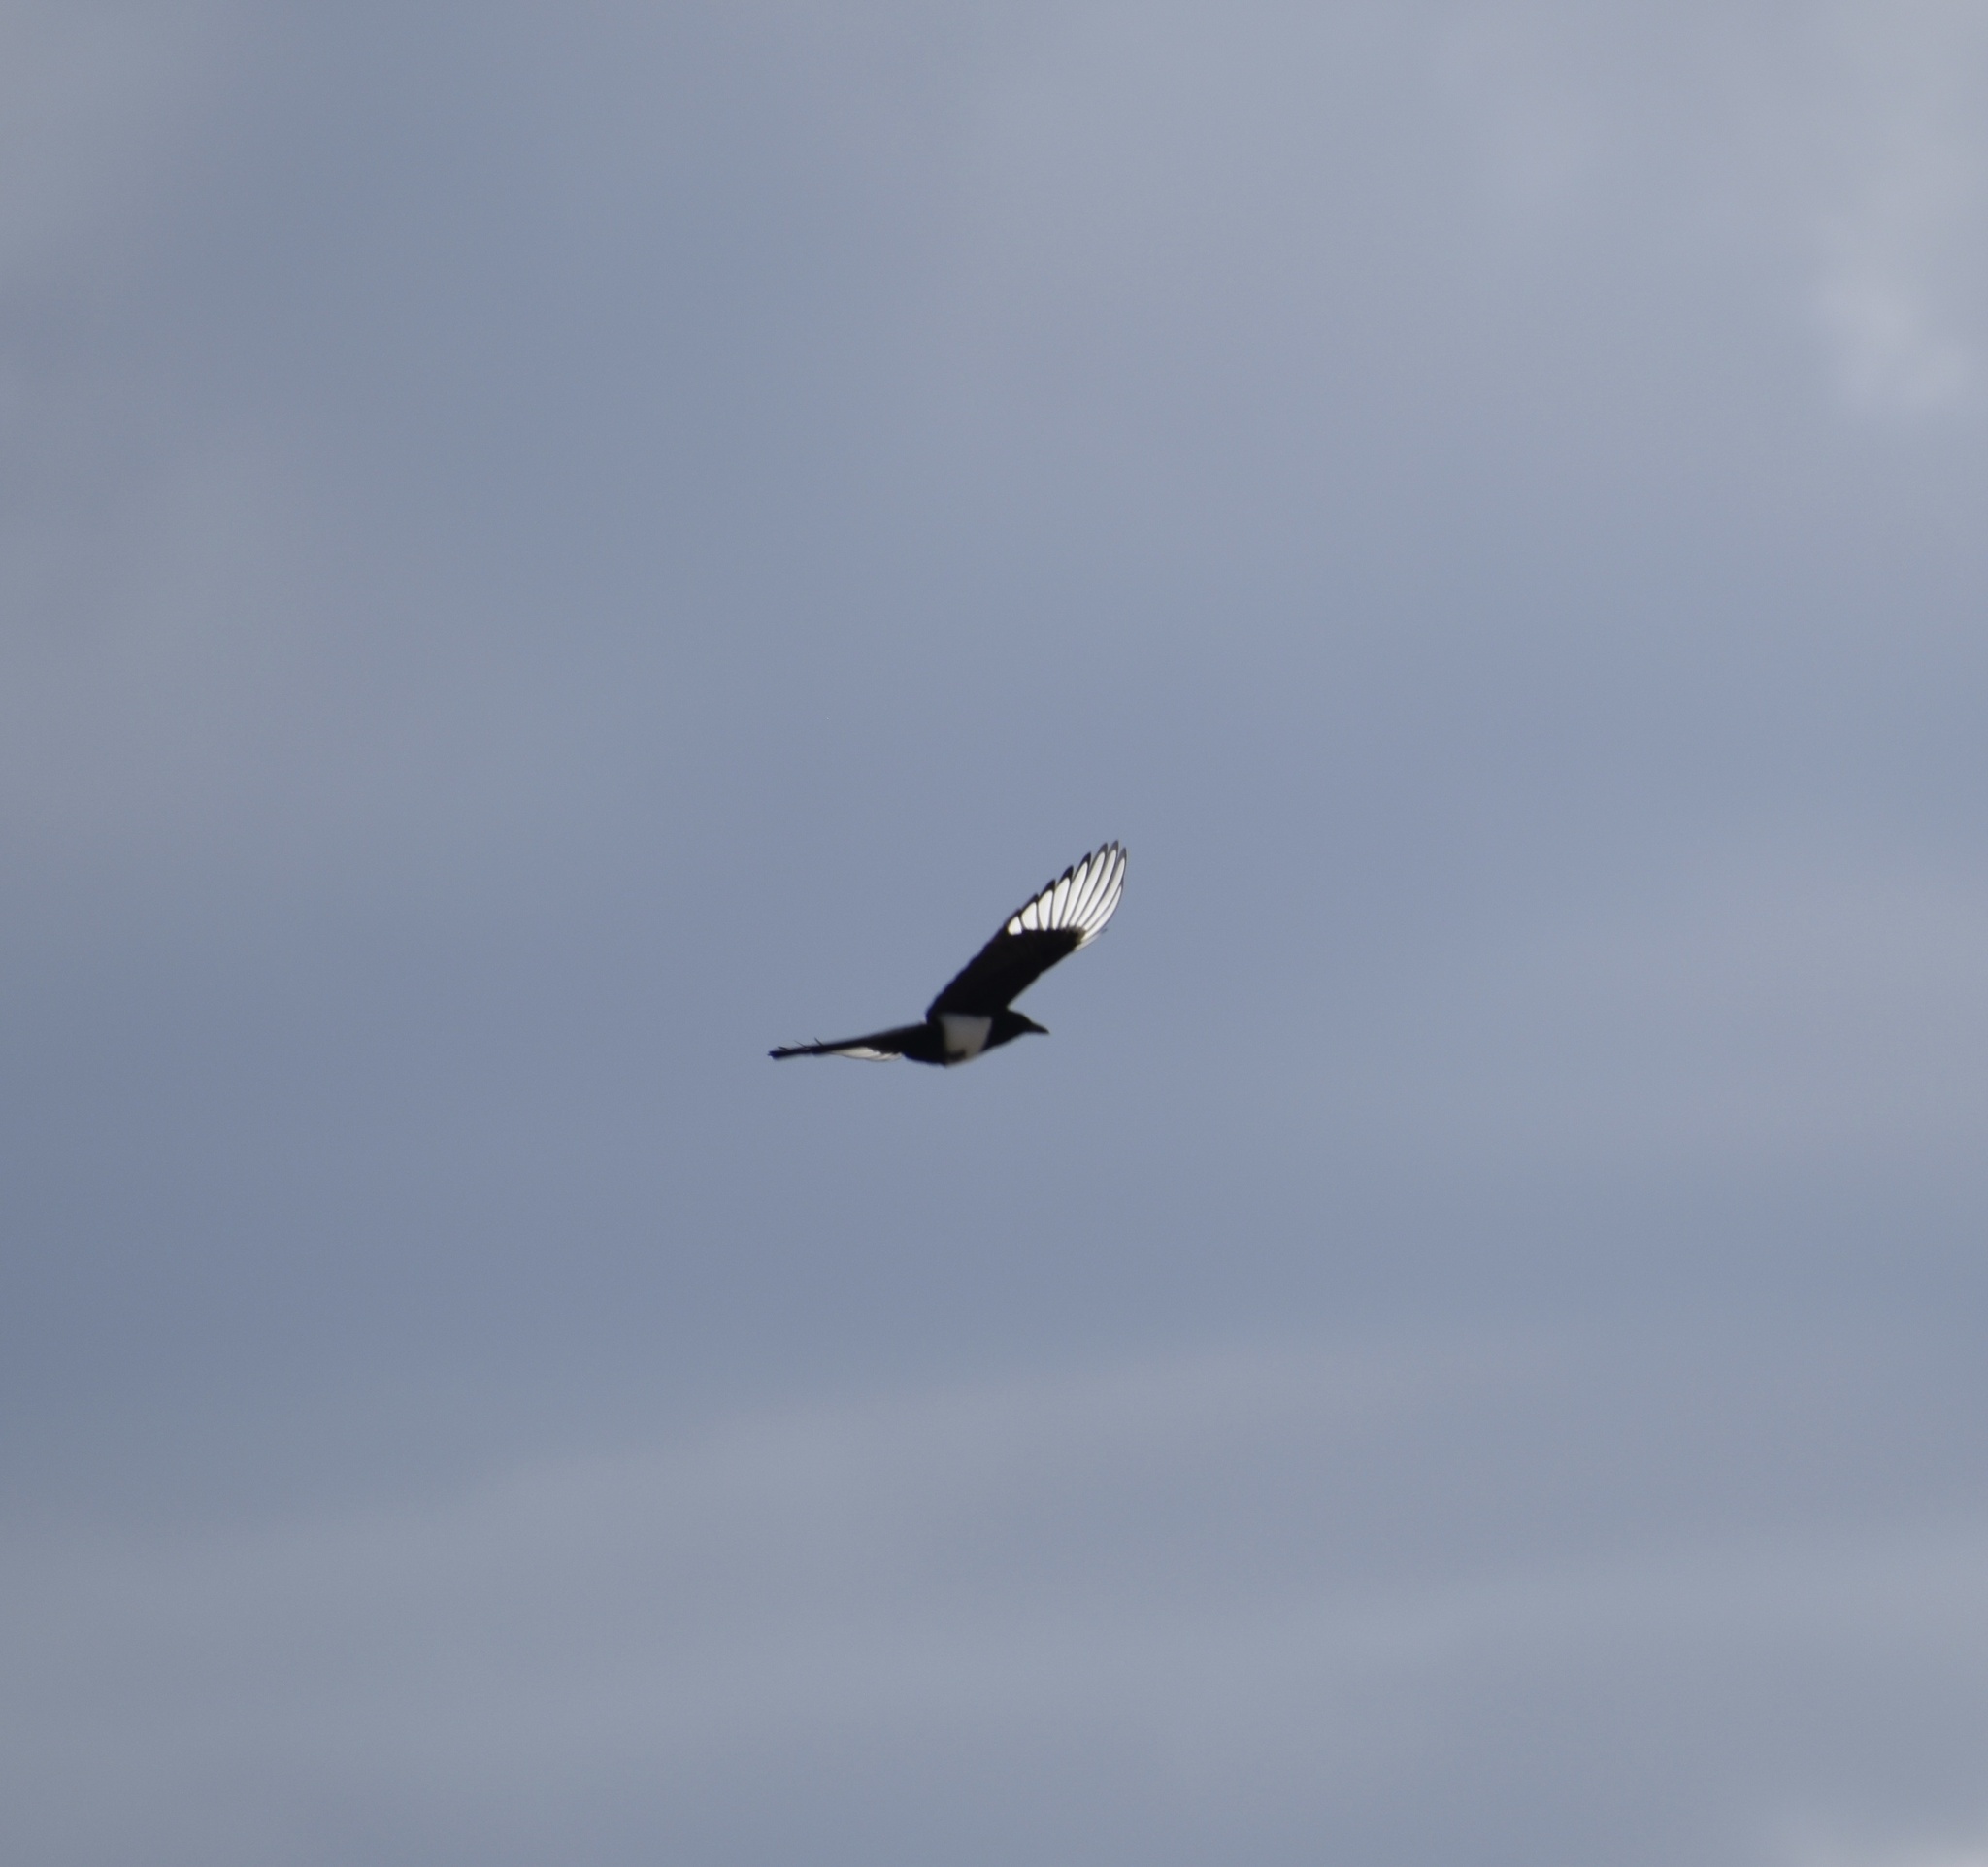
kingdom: Animalia
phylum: Chordata
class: Aves
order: Passeriformes
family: Corvidae
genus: Pica
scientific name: Pica hudsonia
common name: Black-billed magpie
